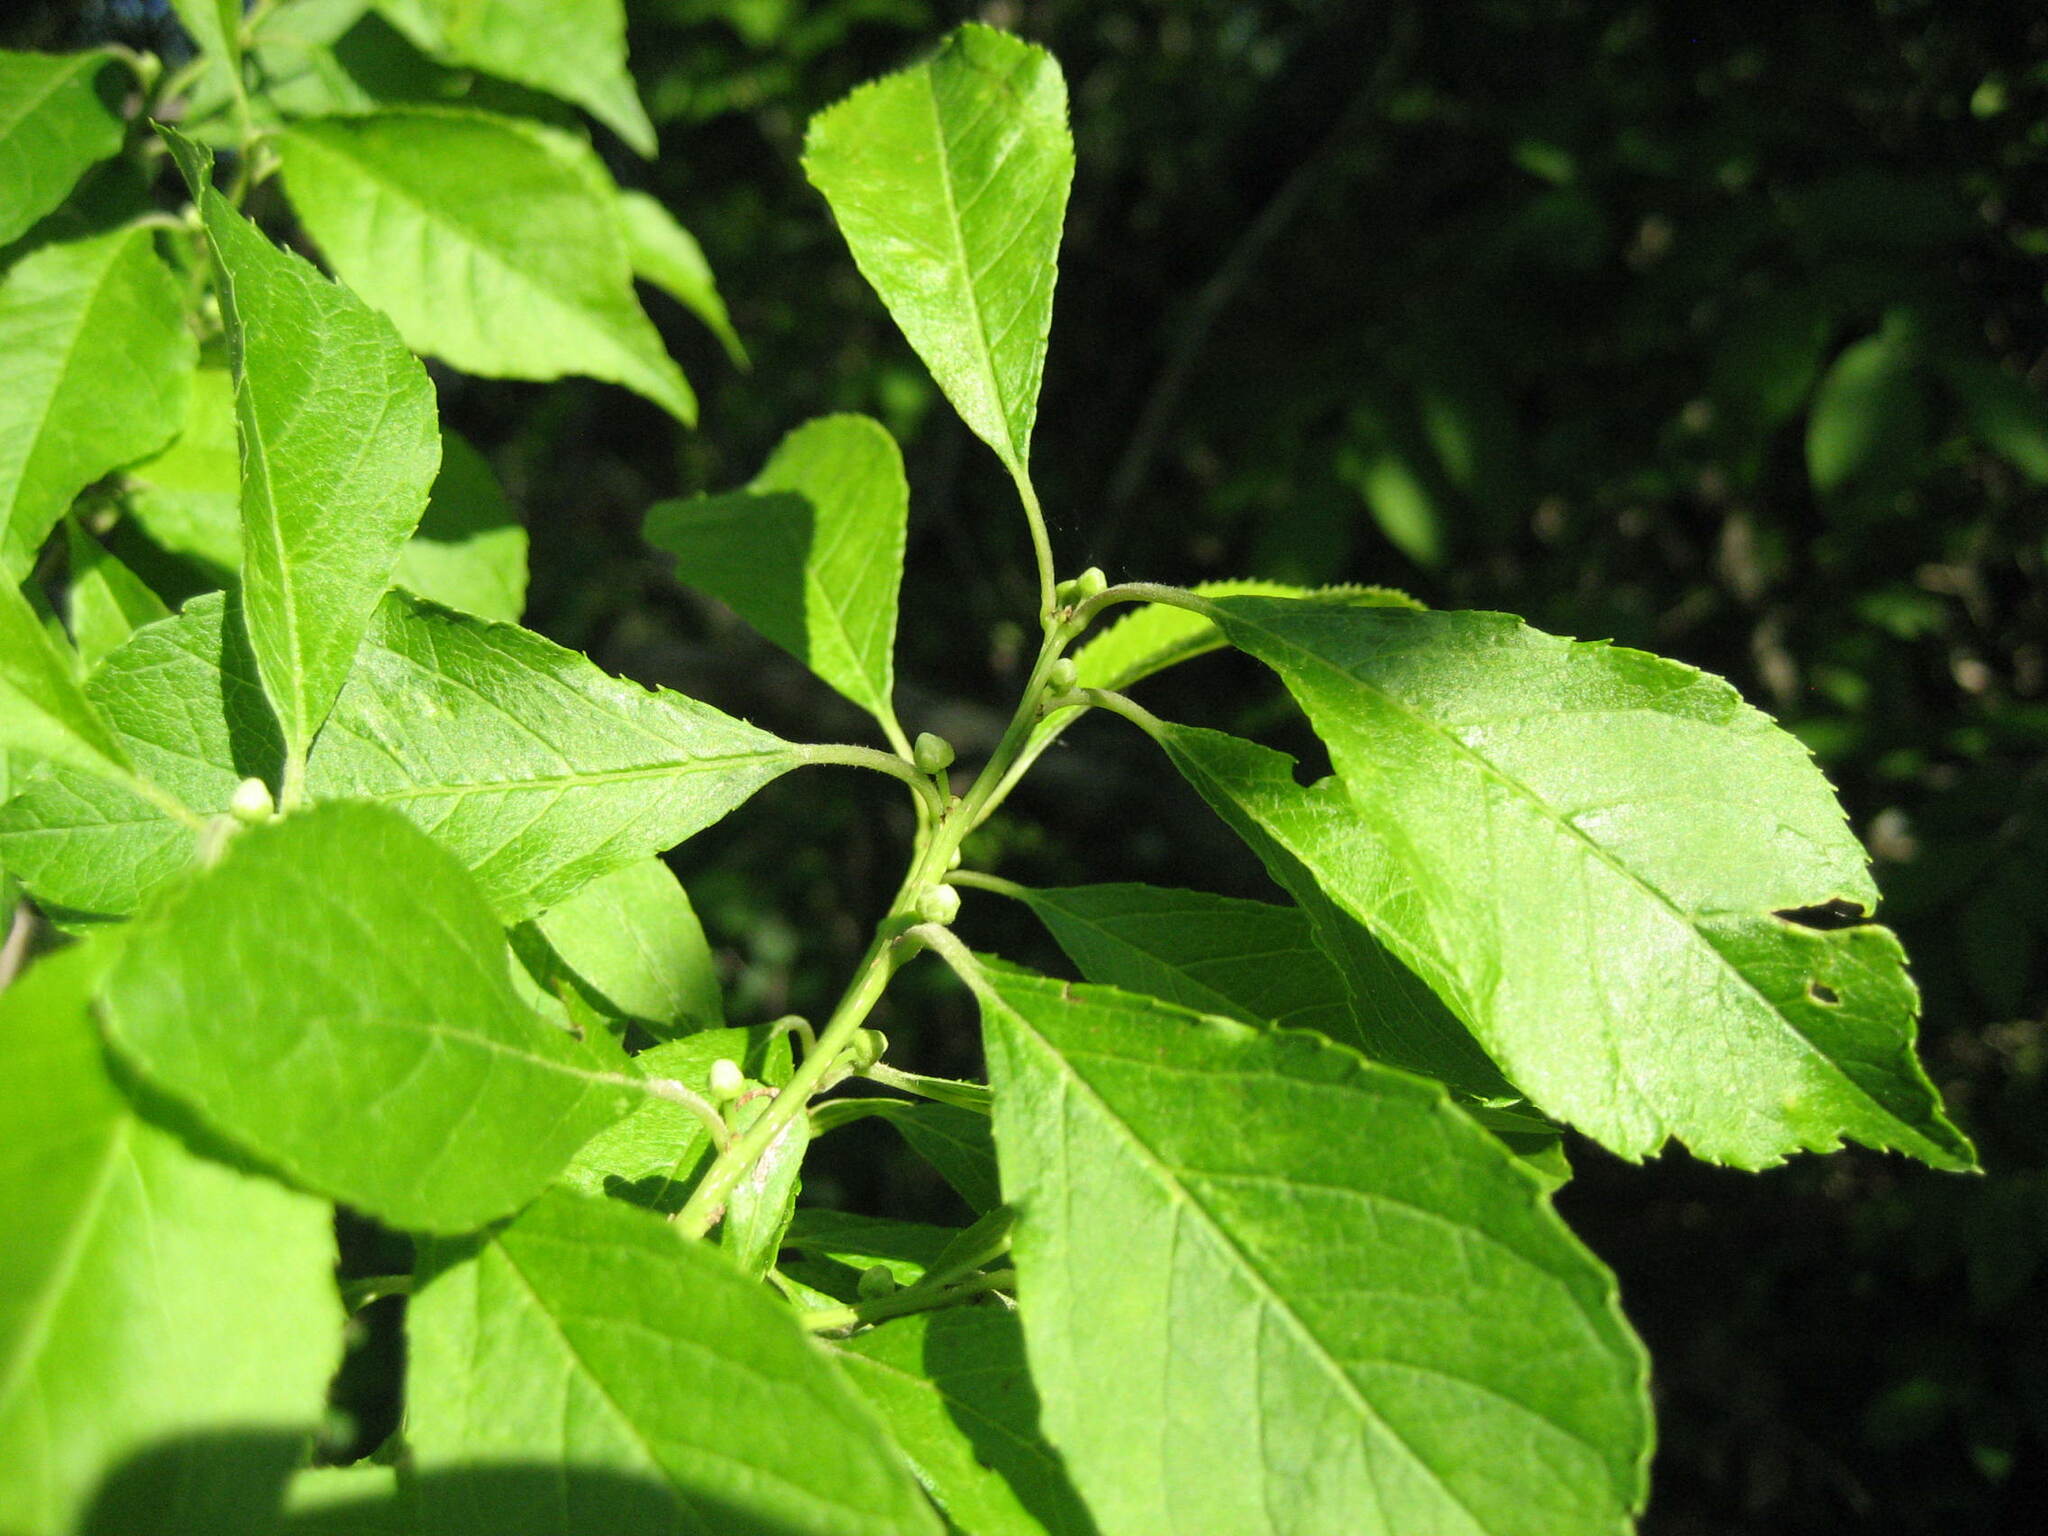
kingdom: Plantae
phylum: Tracheophyta
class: Magnoliopsida
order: Aquifoliales
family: Aquifoliaceae
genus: Ilex
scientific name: Ilex verticillata
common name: Virginia winterberry
